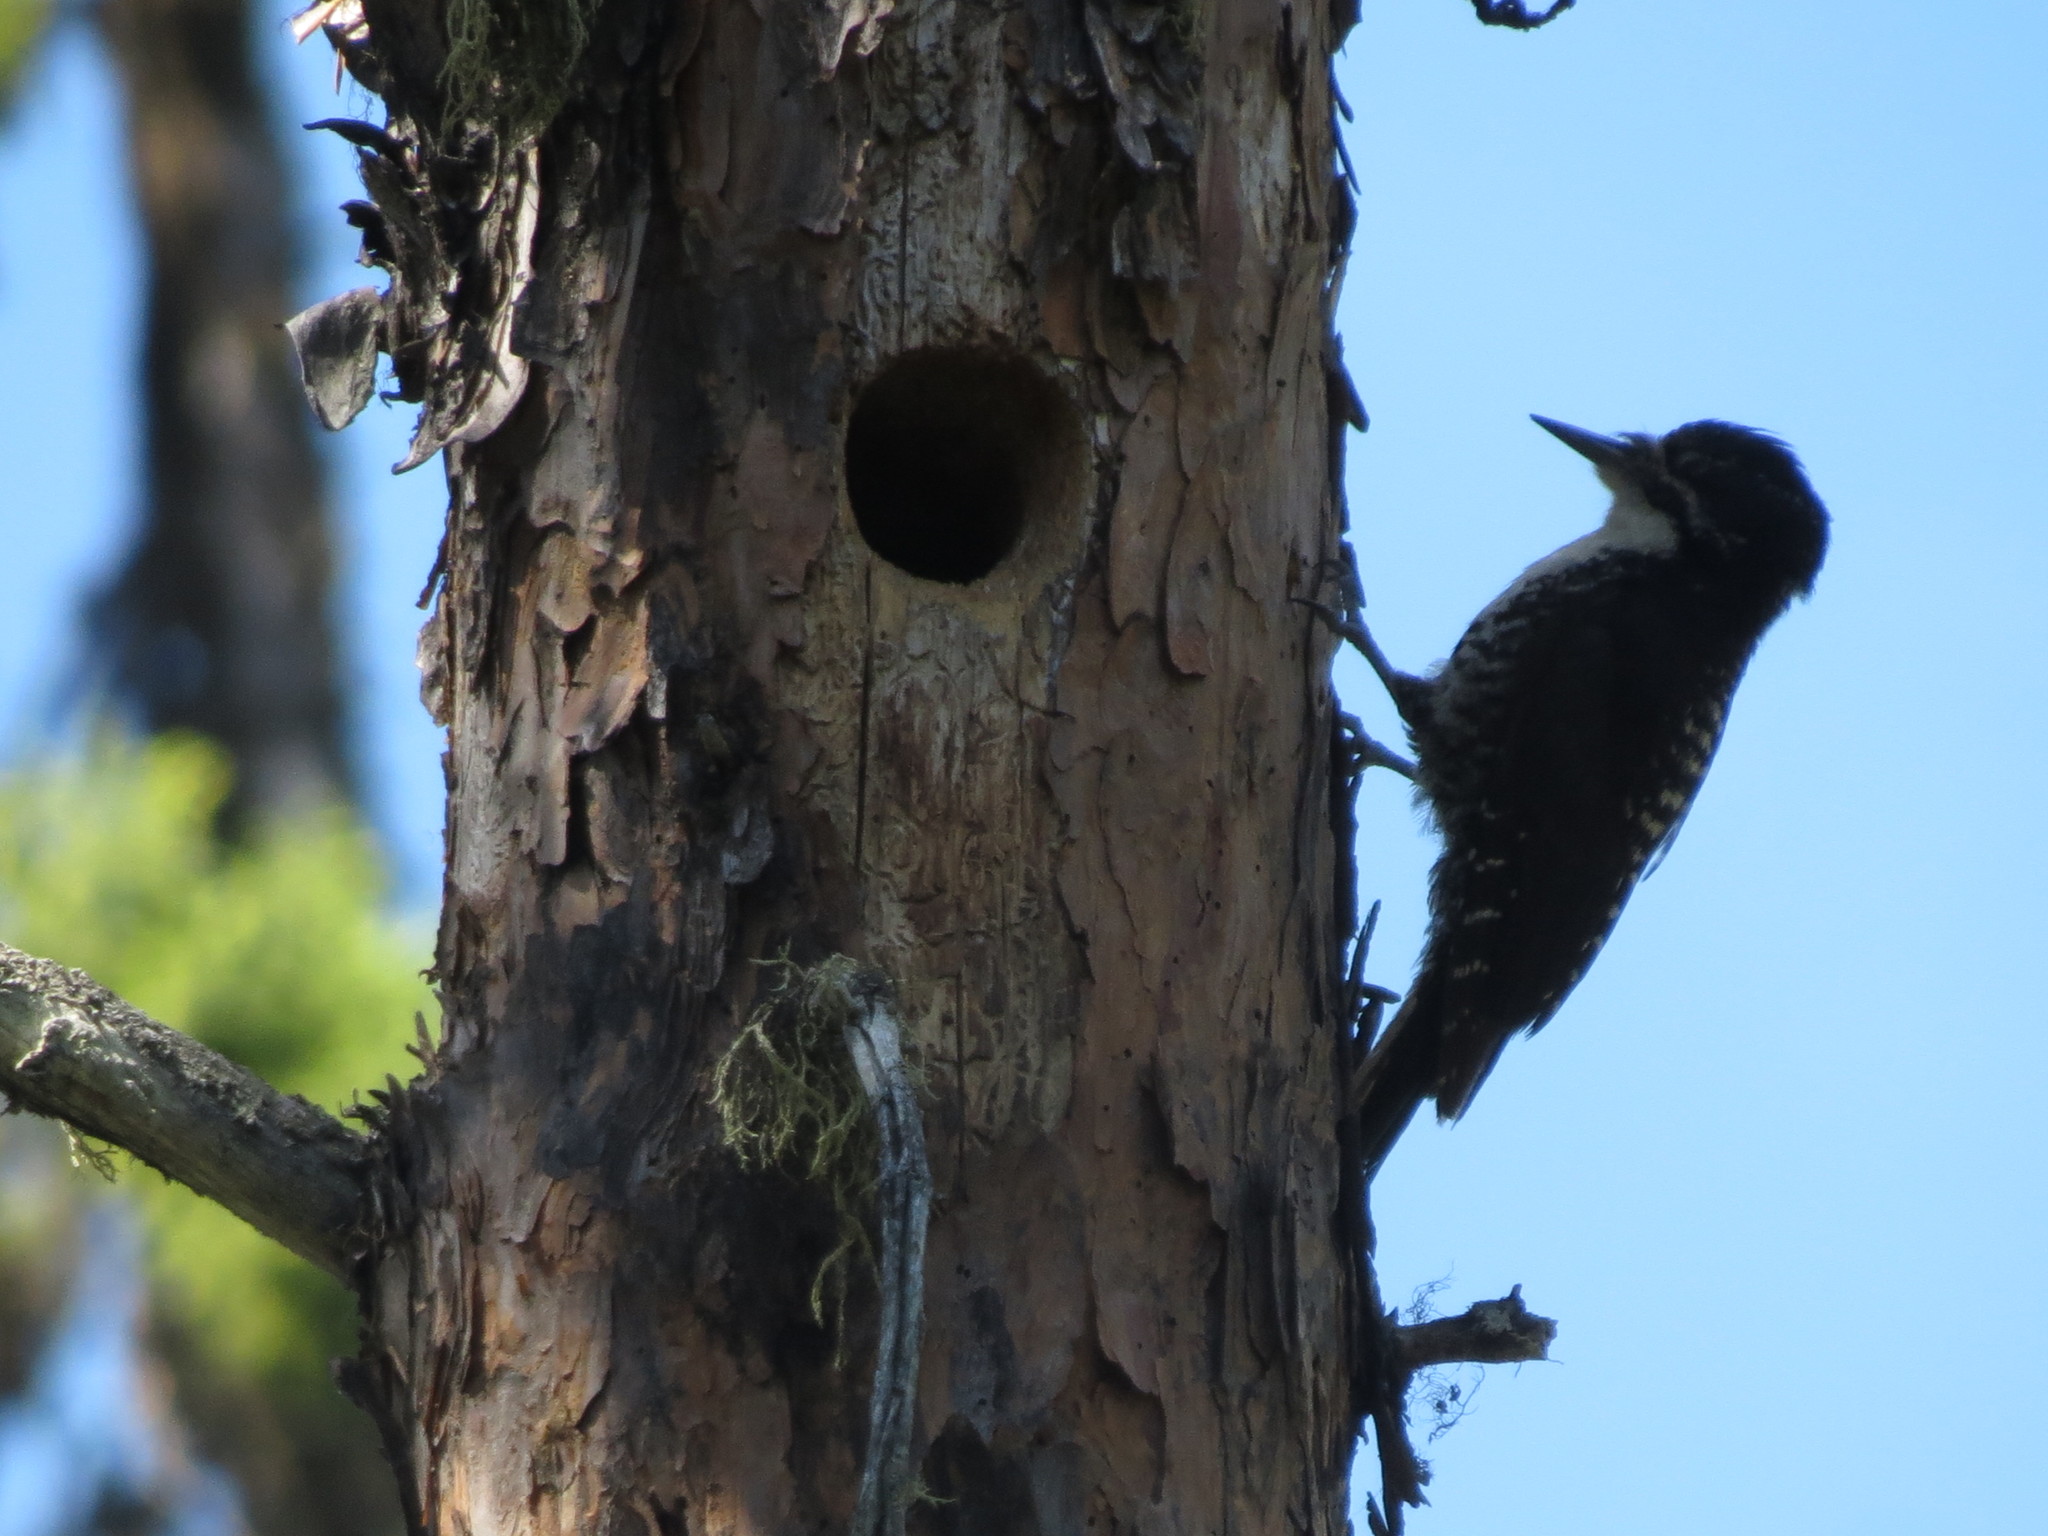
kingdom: Animalia
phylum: Chordata
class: Aves
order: Piciformes
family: Picidae
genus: Picoides
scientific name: Picoides dorsalis
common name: American three-toed woodpecker
